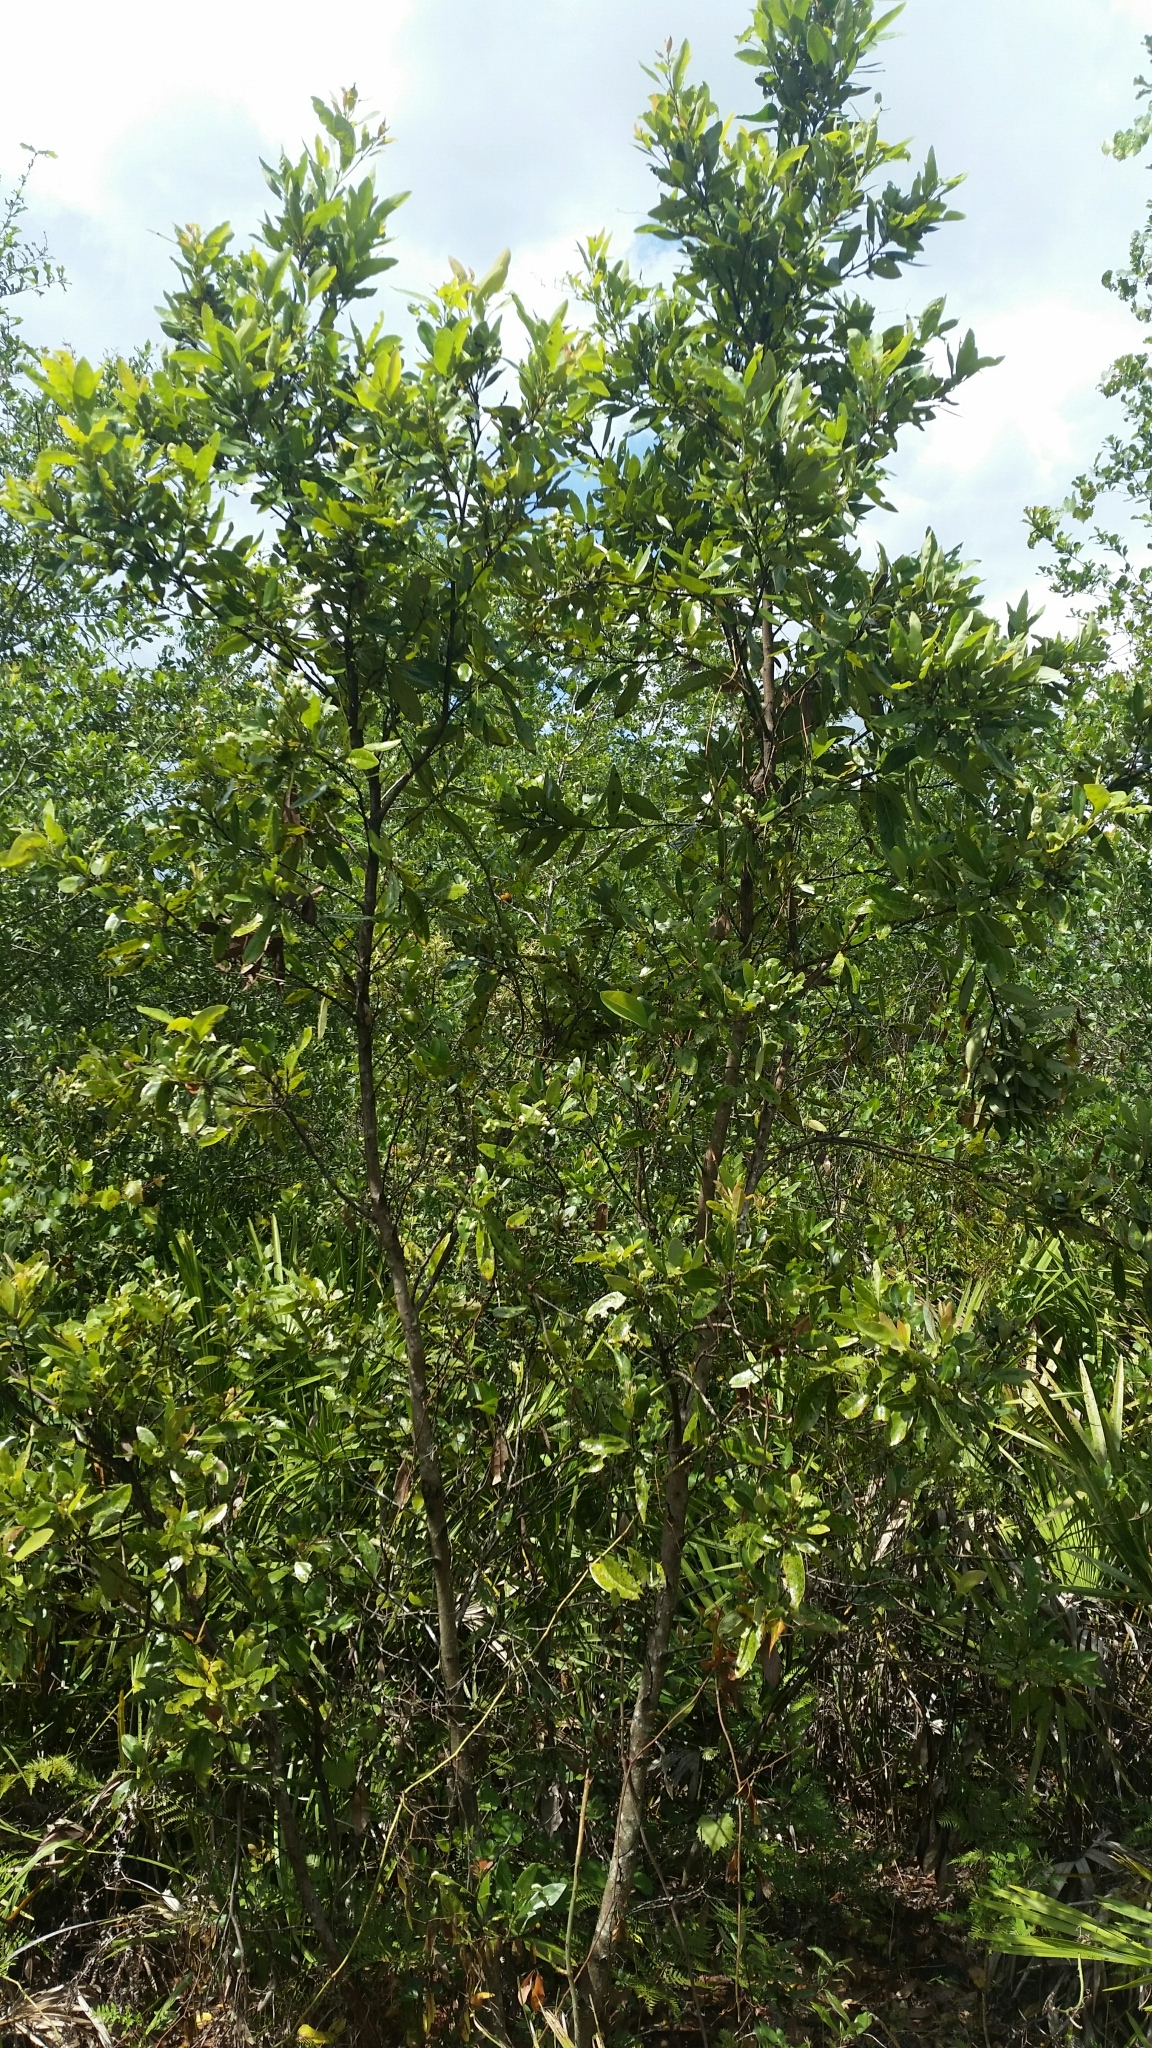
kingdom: Plantae
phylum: Tracheophyta
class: Magnoliopsida
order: Laurales
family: Lauraceae
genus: Persea
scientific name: Persea borbonia
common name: Redbay
